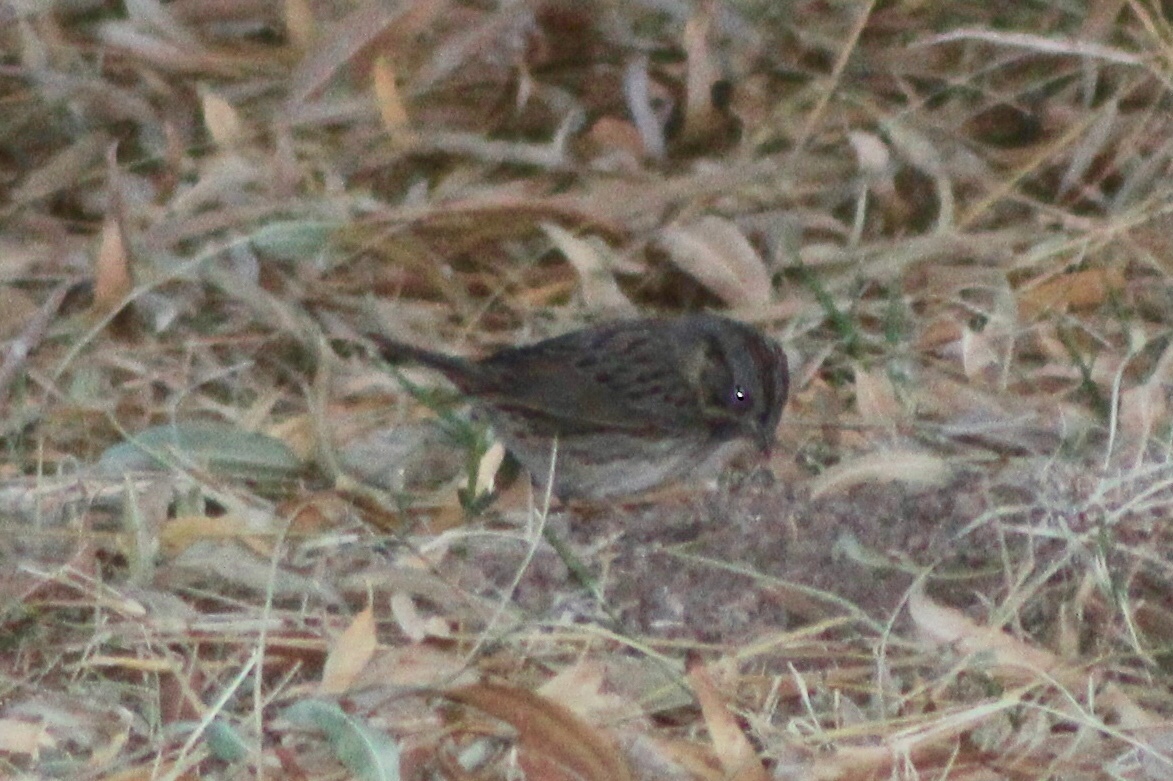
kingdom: Animalia
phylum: Chordata
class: Aves
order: Passeriformes
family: Passerellidae
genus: Melospiza
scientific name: Melospiza lincolnii
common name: Lincoln's sparrow
